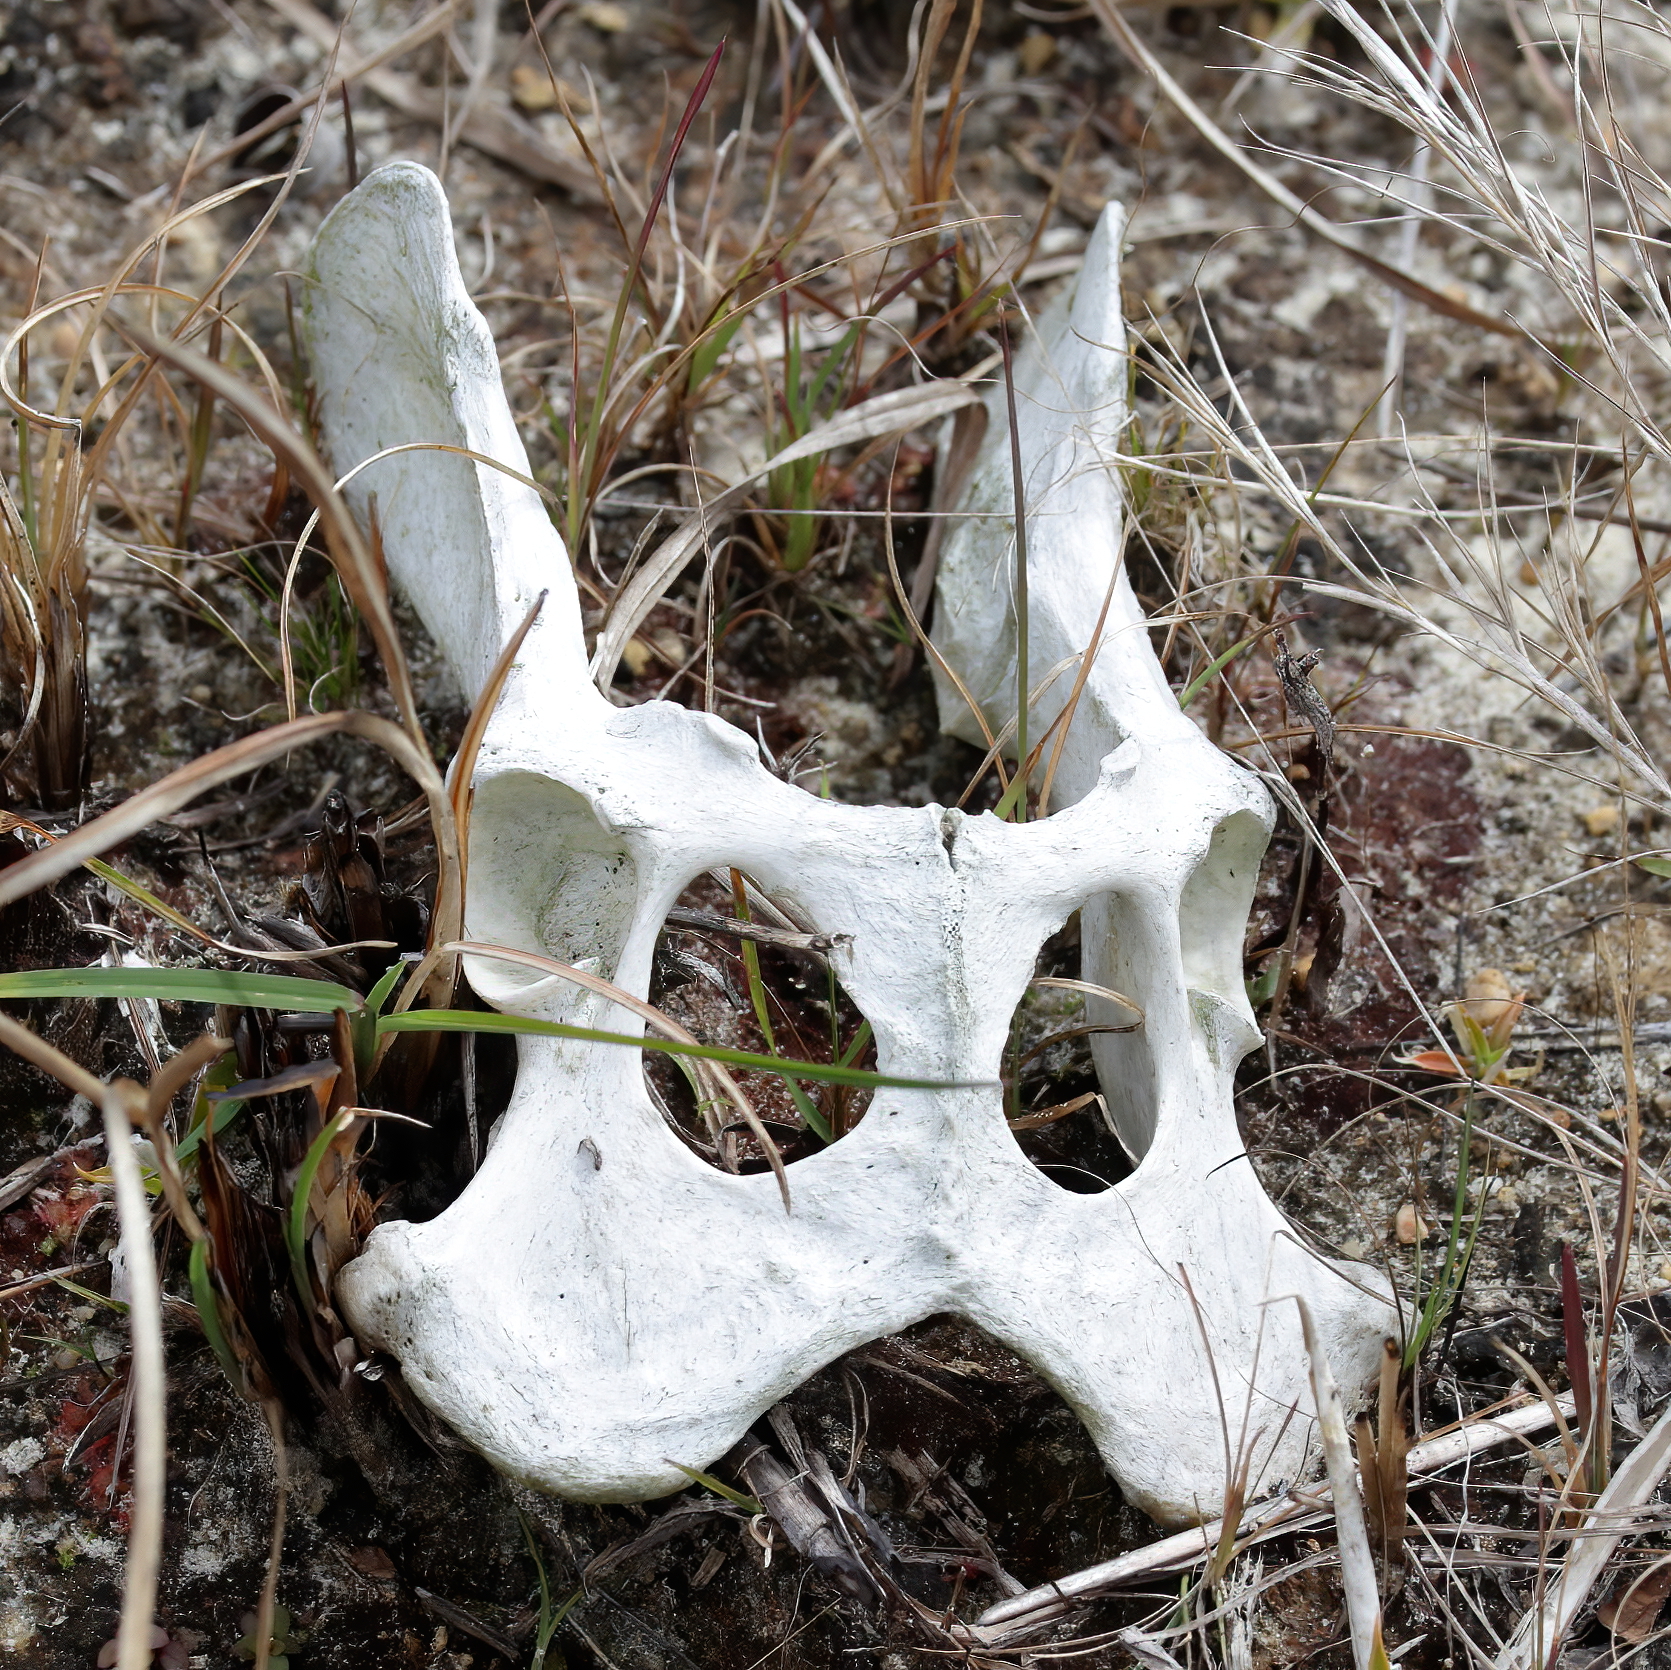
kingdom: Animalia
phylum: Chordata
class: Mammalia
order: Carnivora
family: Canidae
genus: Canis
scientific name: Canis latrans
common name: Coyote
